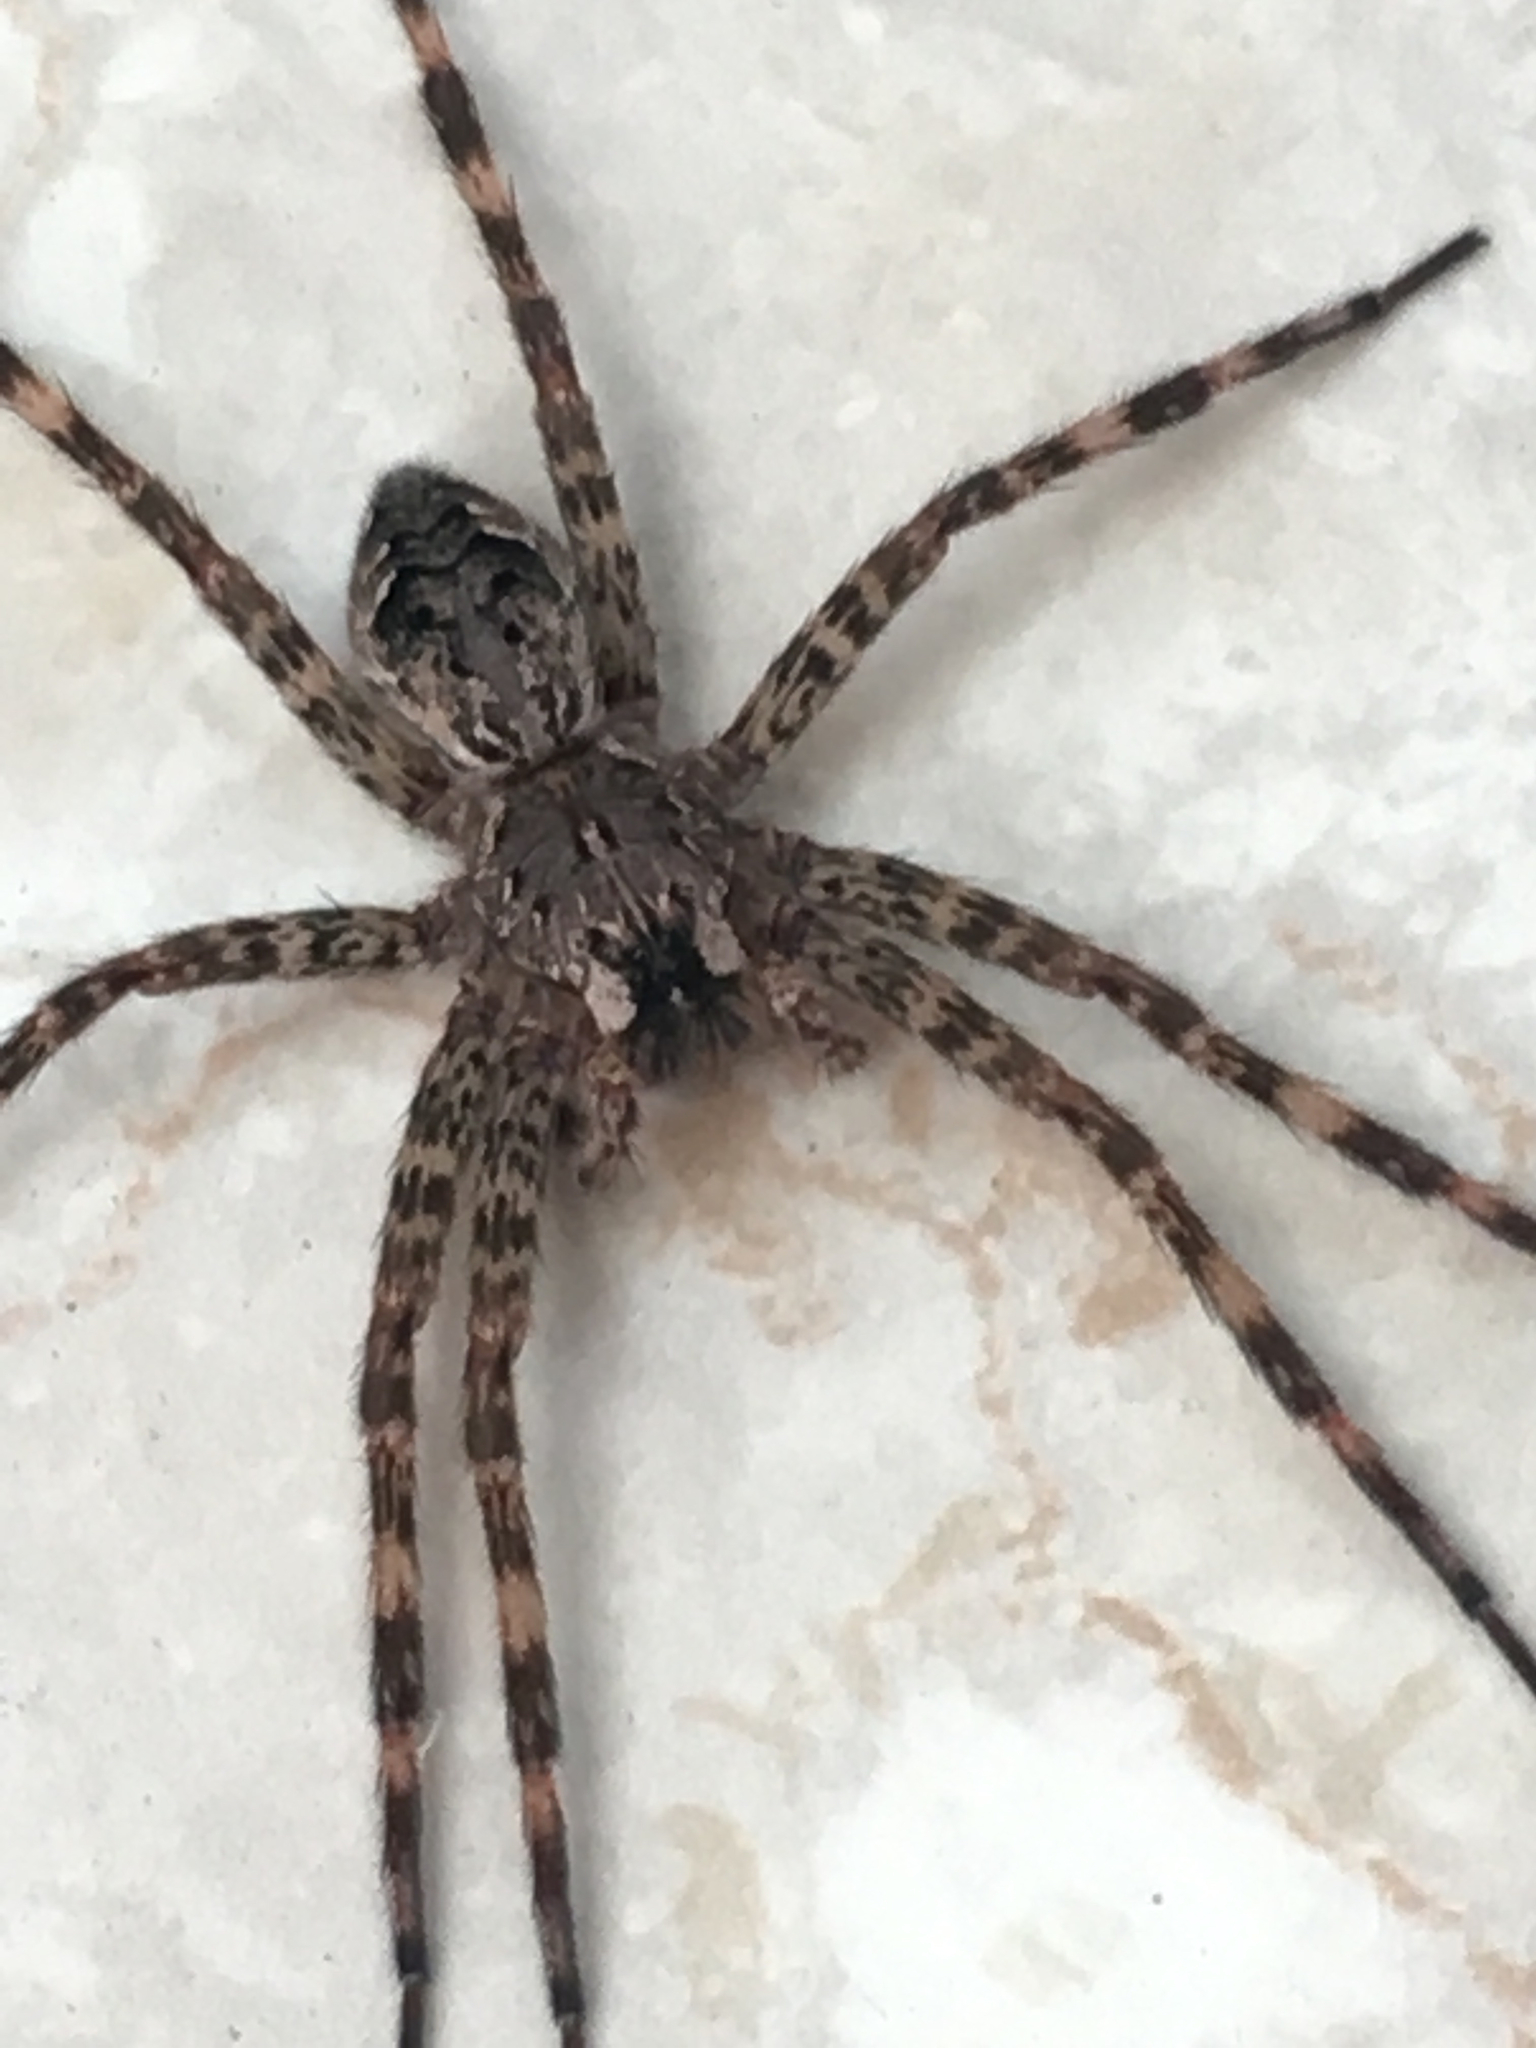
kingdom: Animalia
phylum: Arthropoda
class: Arachnida
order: Araneae
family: Pisauridae
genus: Dolomedes
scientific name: Dolomedes tenebrosus
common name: Dark fishing spider
